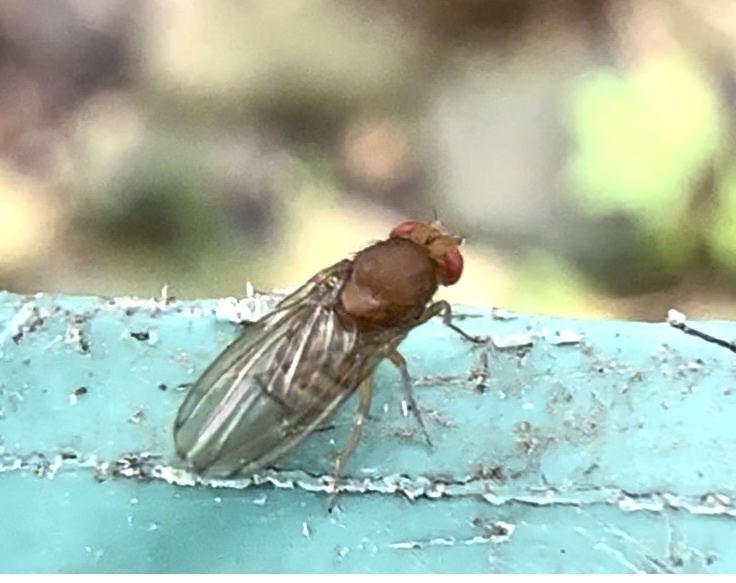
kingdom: Animalia
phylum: Arthropoda
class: Insecta
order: Diptera
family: Drosophilidae
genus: Drosophila
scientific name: Drosophila immigrans
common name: Pomace fly
